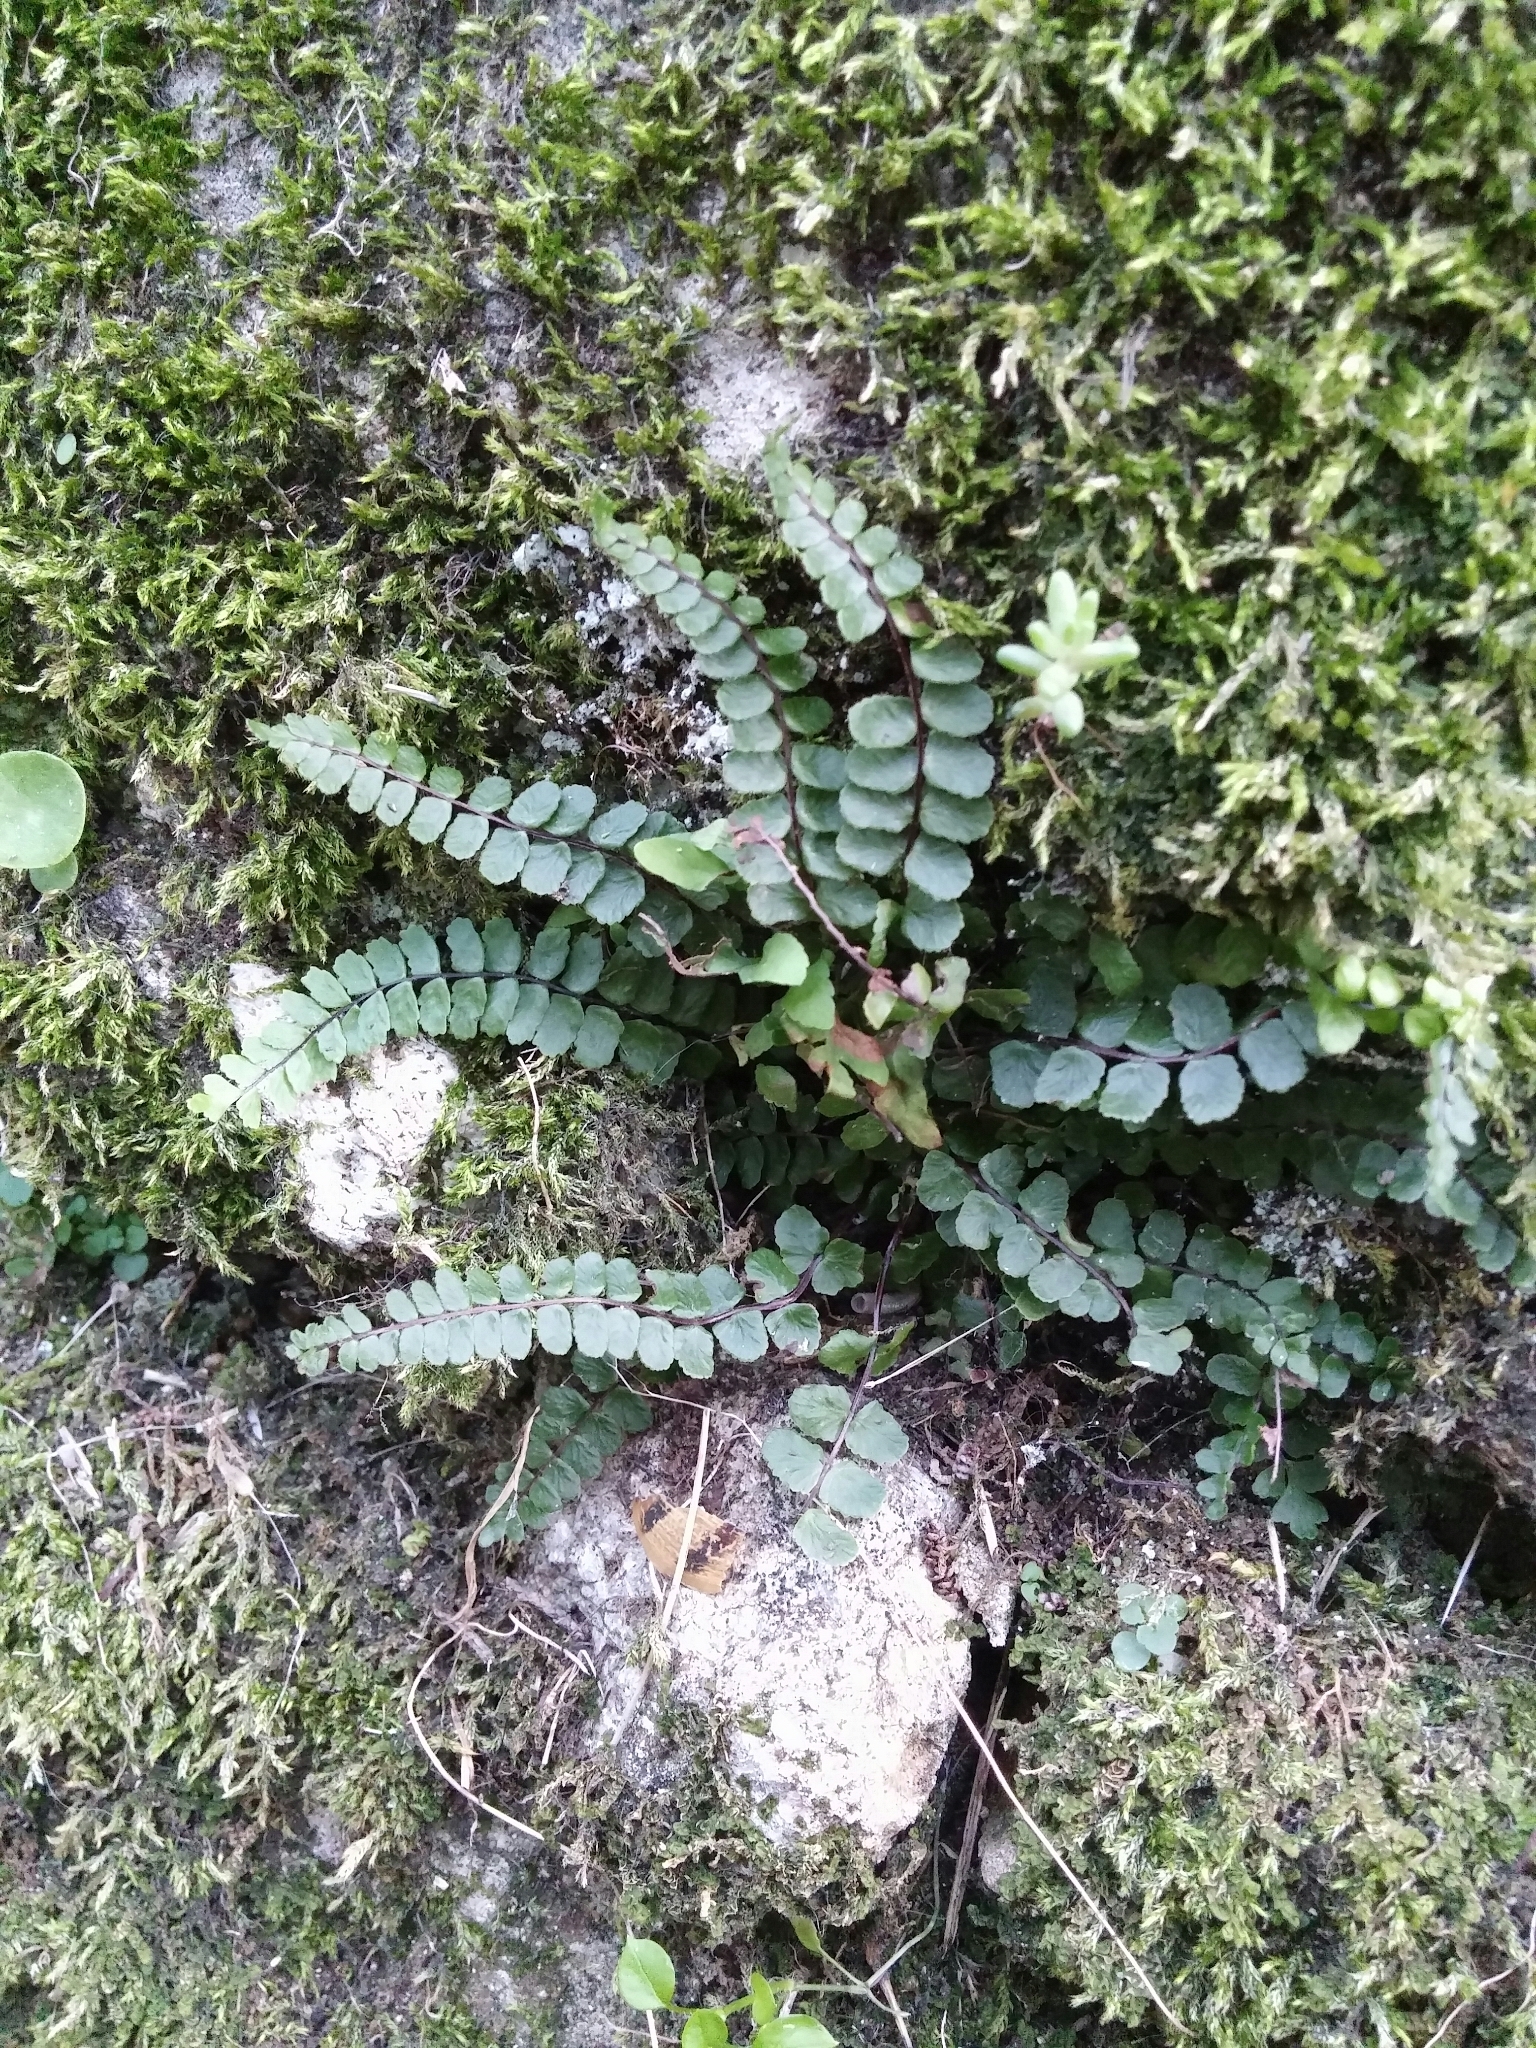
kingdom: Plantae
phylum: Tracheophyta
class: Polypodiopsida
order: Polypodiales
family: Aspleniaceae
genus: Asplenium
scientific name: Asplenium trichomanes
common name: Maidenhair spleenwort
